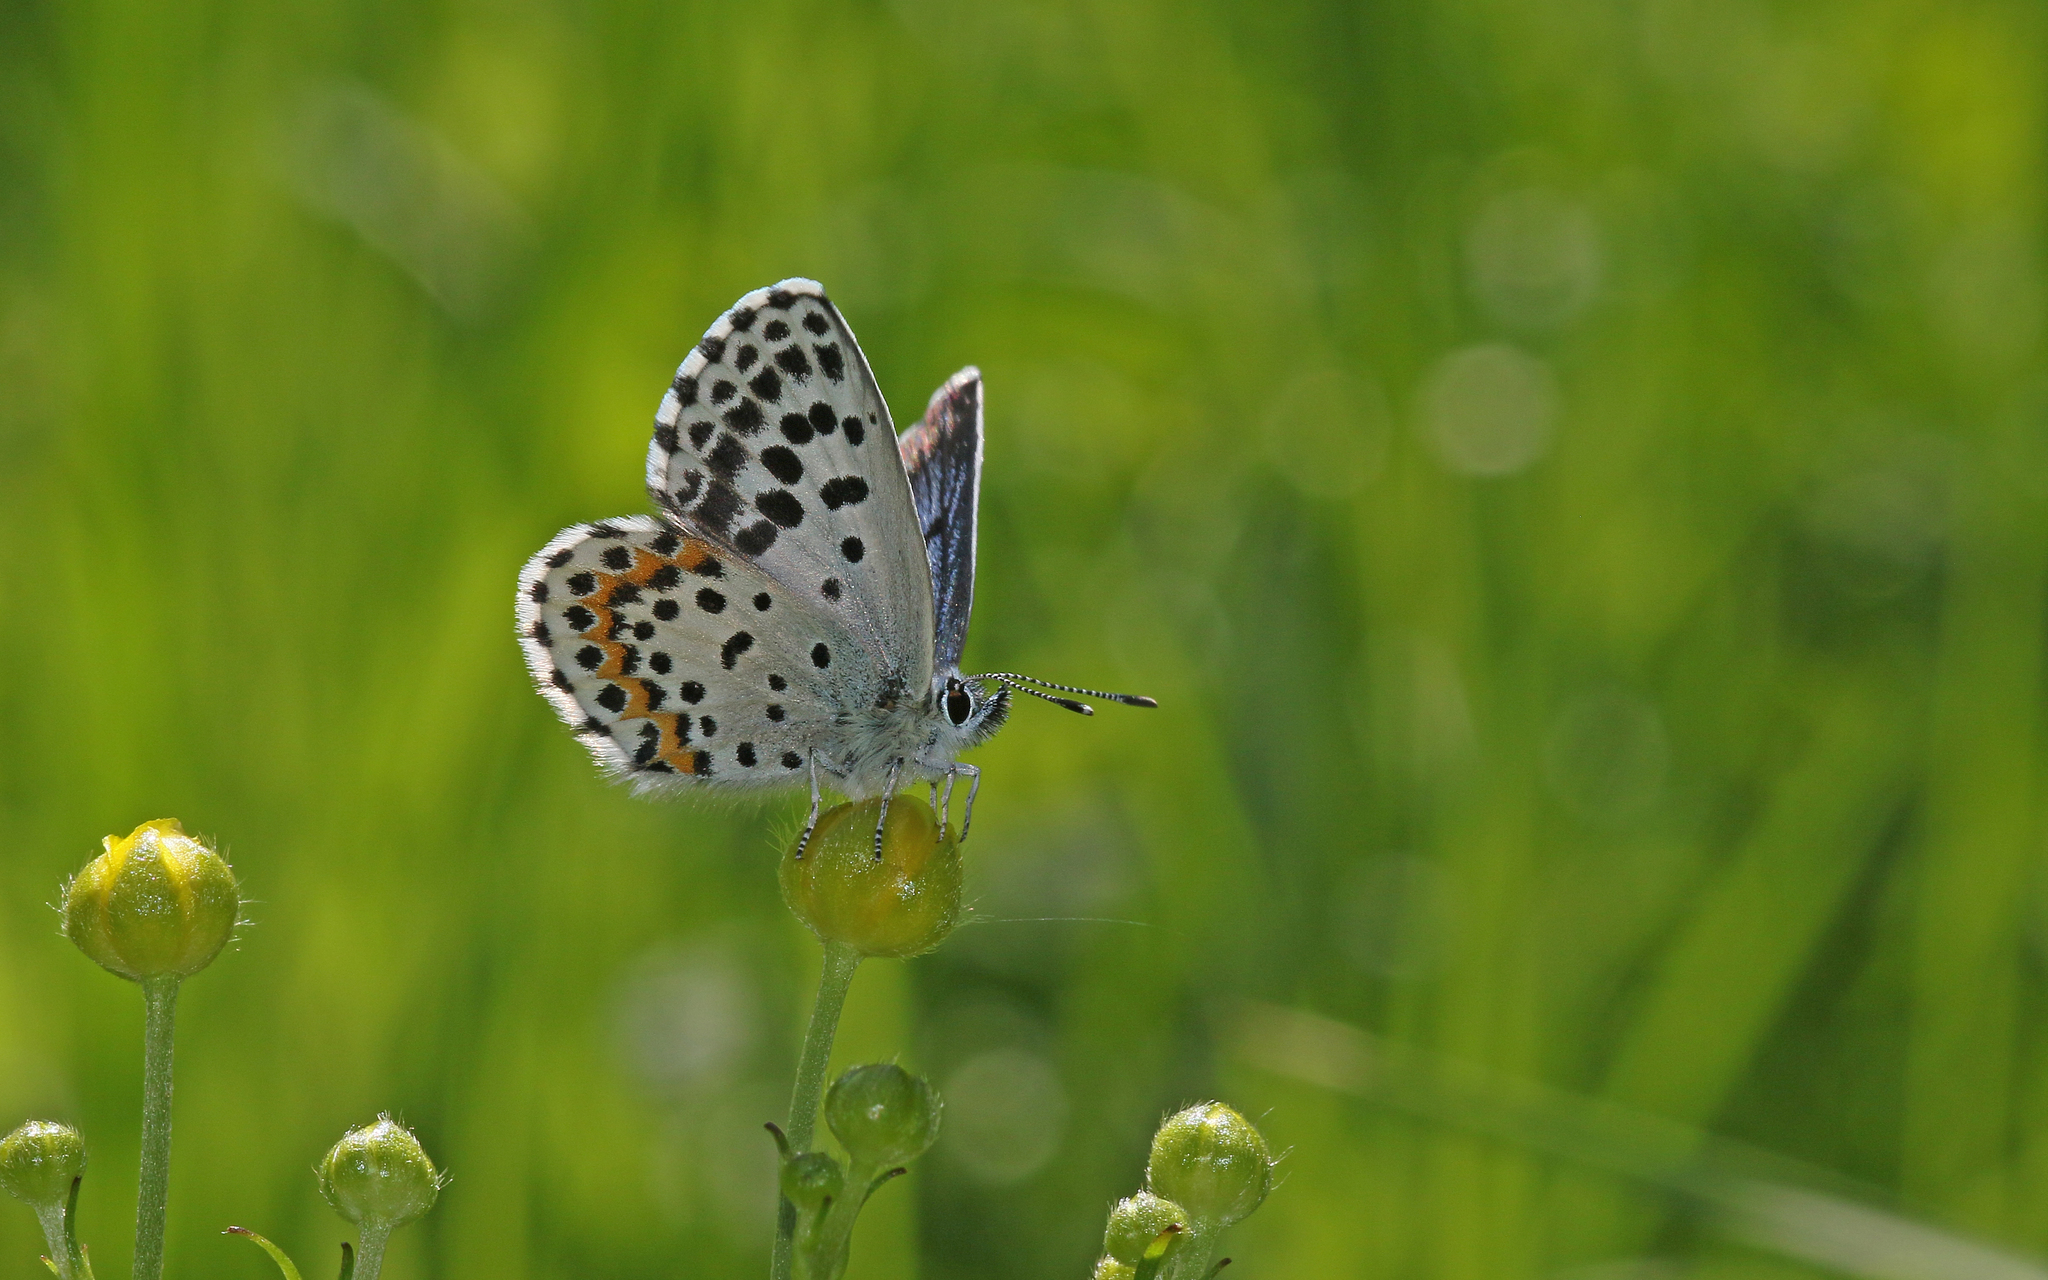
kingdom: Animalia
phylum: Arthropoda
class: Insecta
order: Lepidoptera
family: Lycaenidae
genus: Scolitantides
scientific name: Scolitantides orion
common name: Chequered blue
